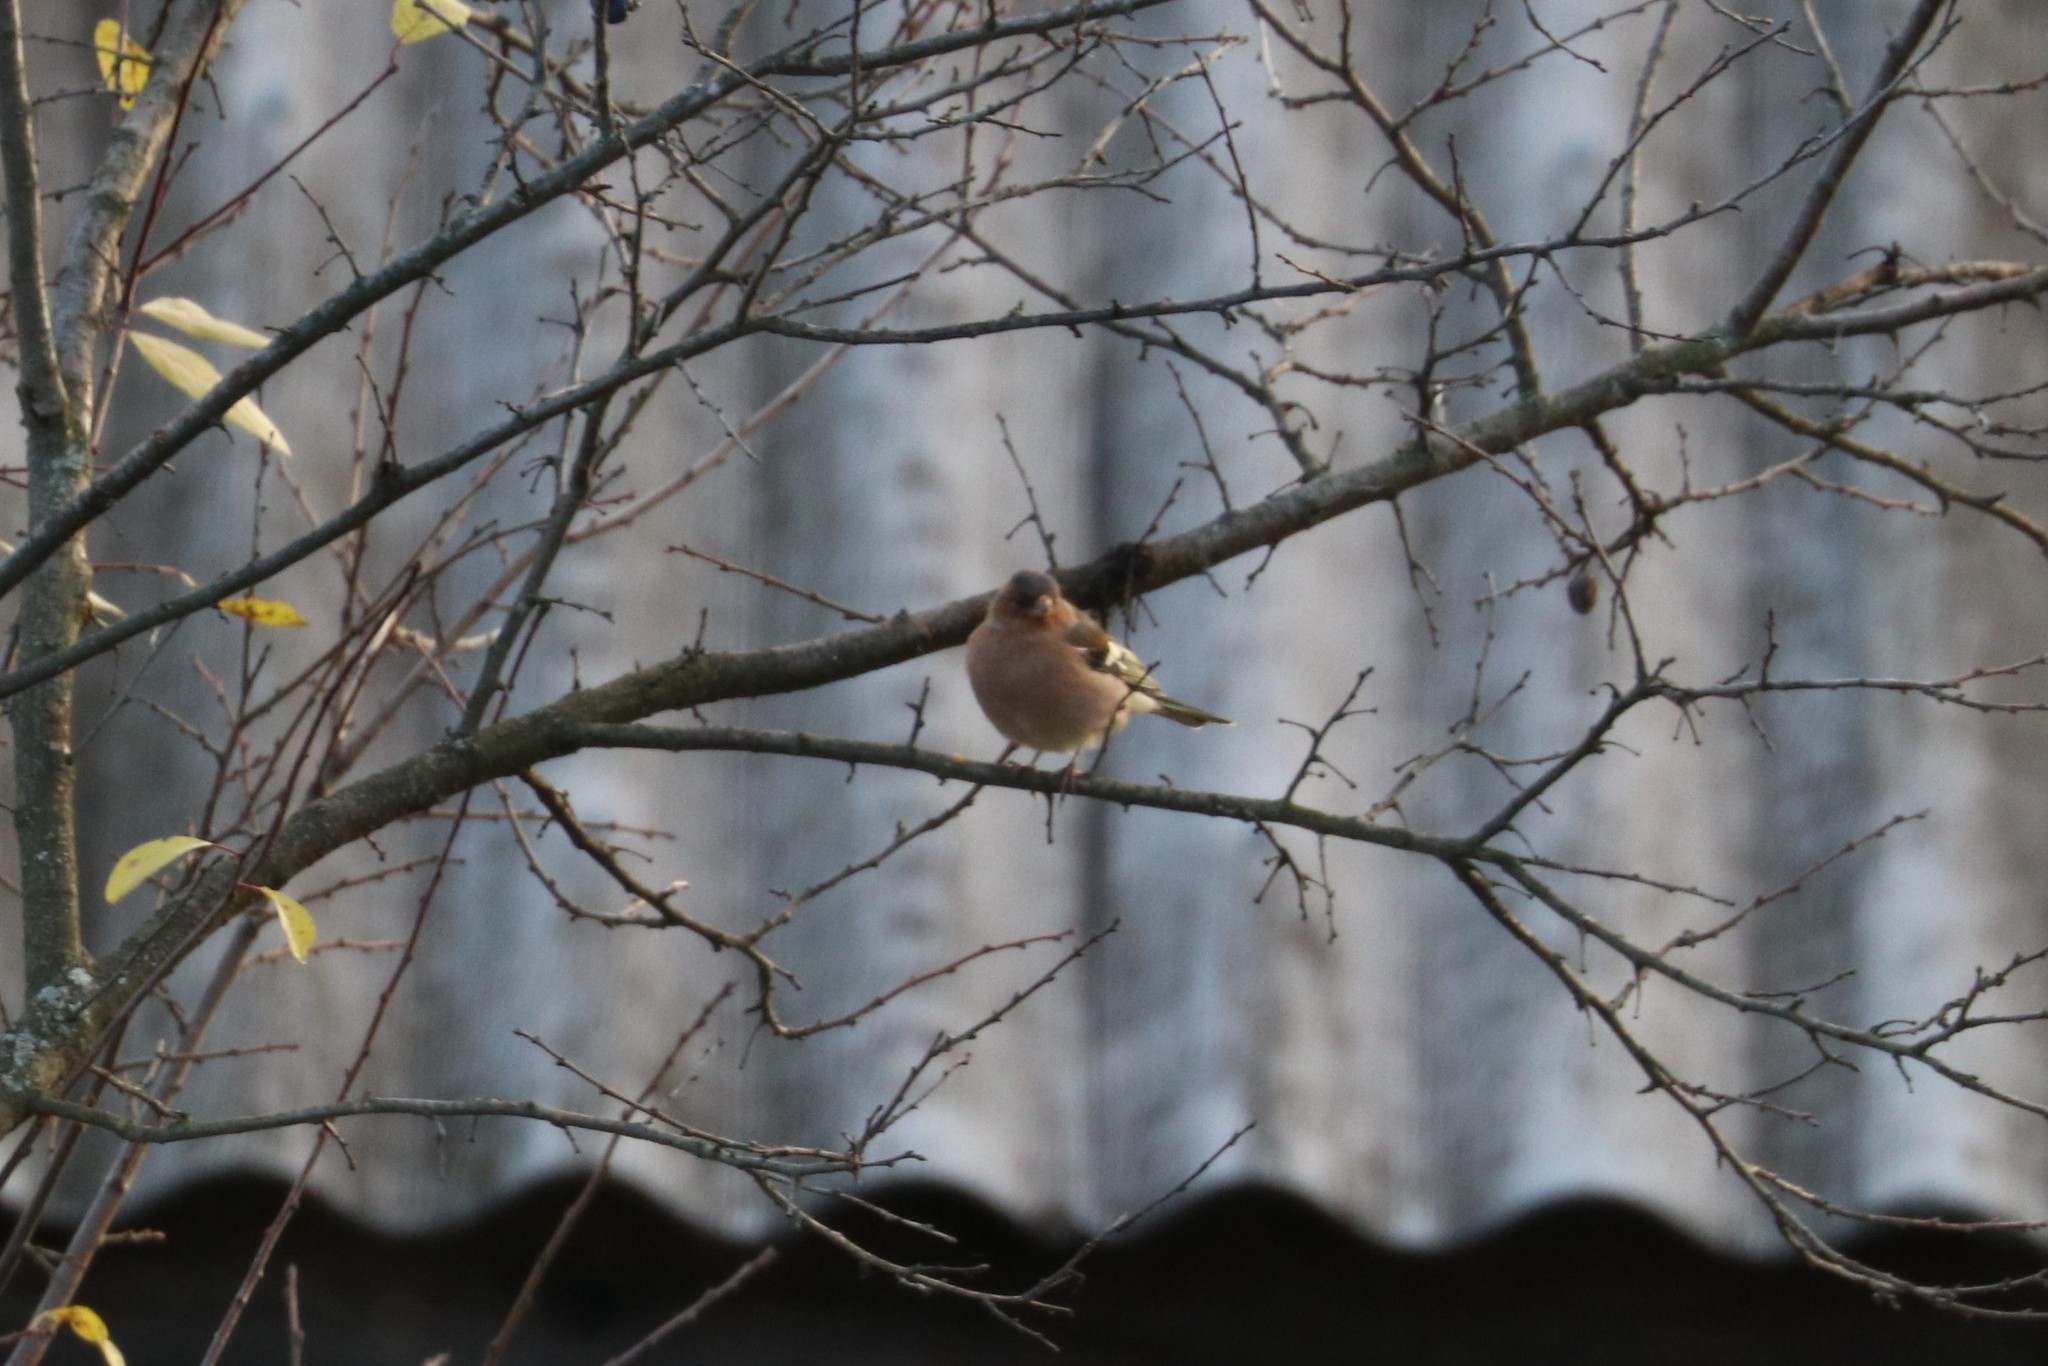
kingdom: Animalia
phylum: Chordata
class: Aves
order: Passeriformes
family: Fringillidae
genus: Fringilla
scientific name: Fringilla coelebs
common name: Common chaffinch
